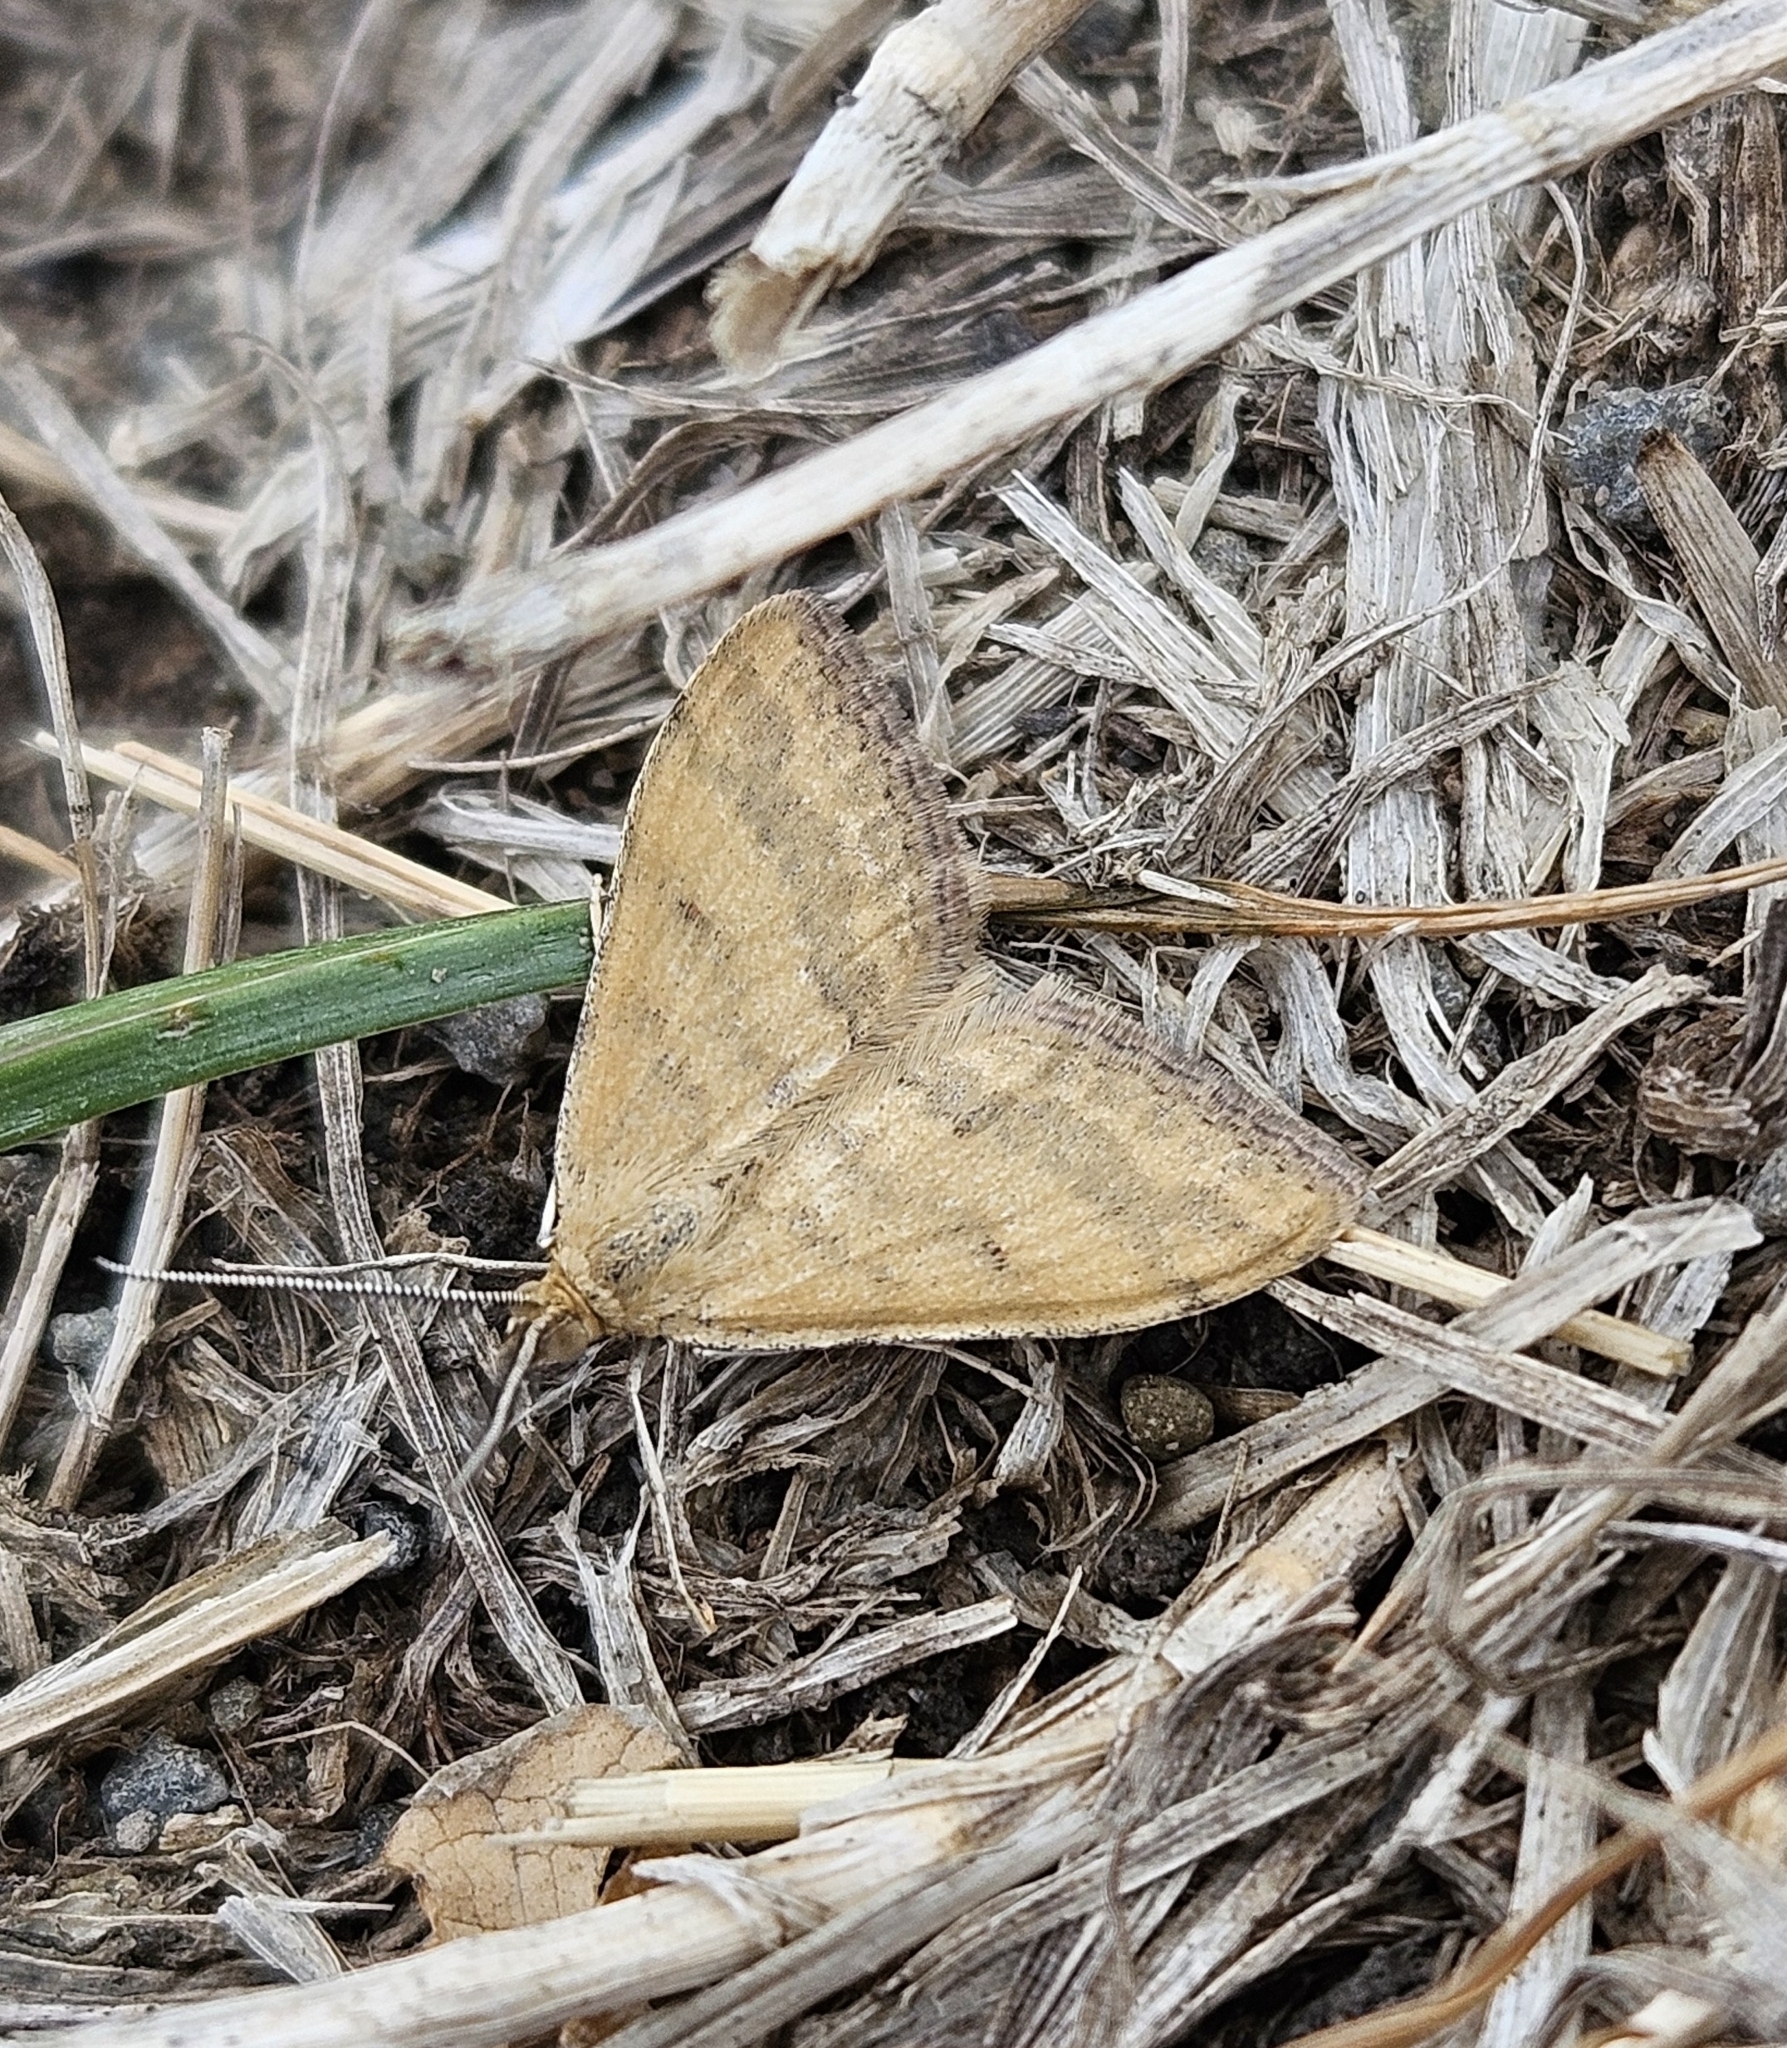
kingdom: Animalia
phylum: Arthropoda
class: Insecta
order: Lepidoptera
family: Geometridae
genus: Scopula
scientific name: Scopula rubraria
